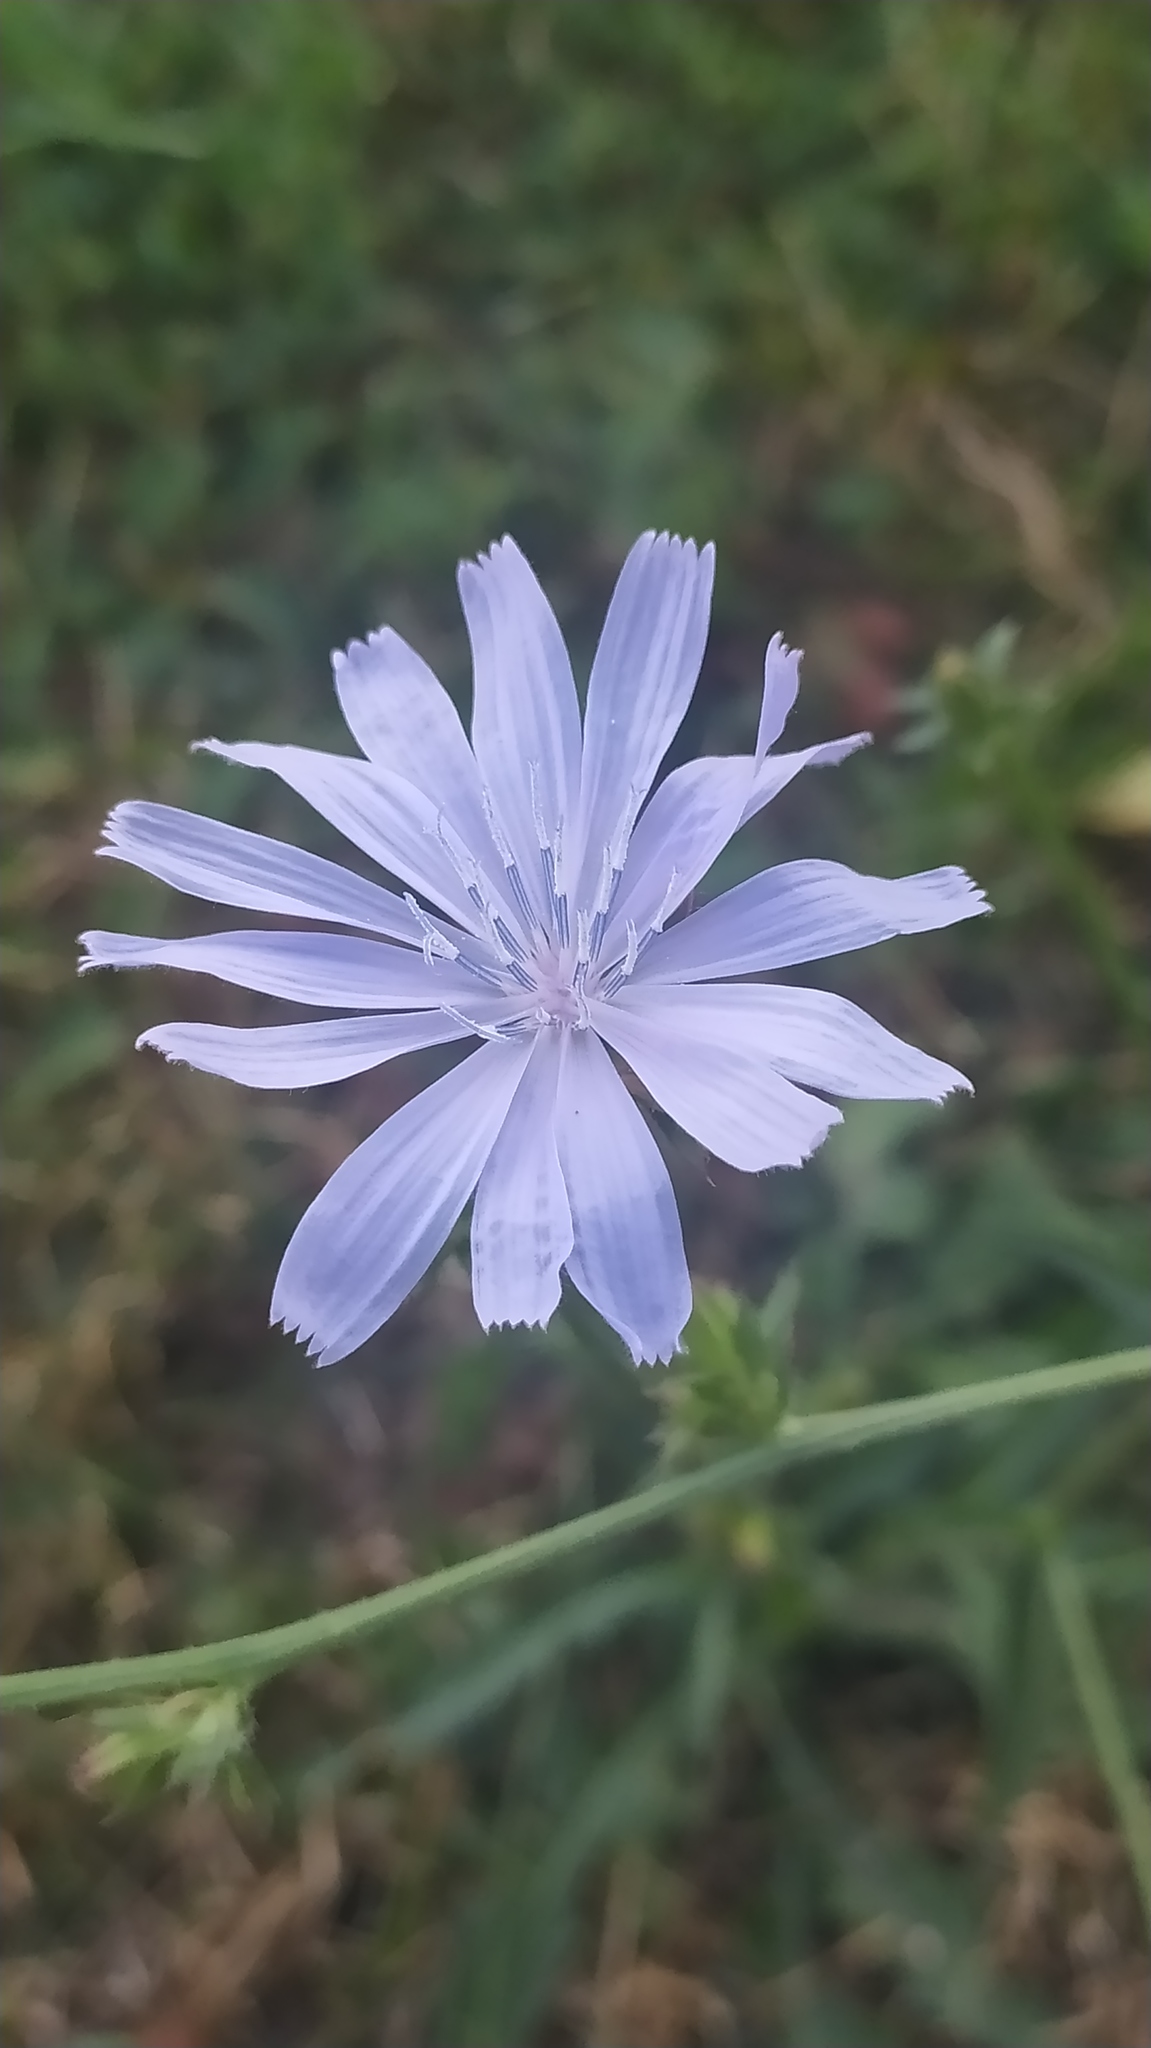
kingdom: Plantae
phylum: Tracheophyta
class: Magnoliopsida
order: Asterales
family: Asteraceae
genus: Cichorium
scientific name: Cichorium intybus
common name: Chicory
